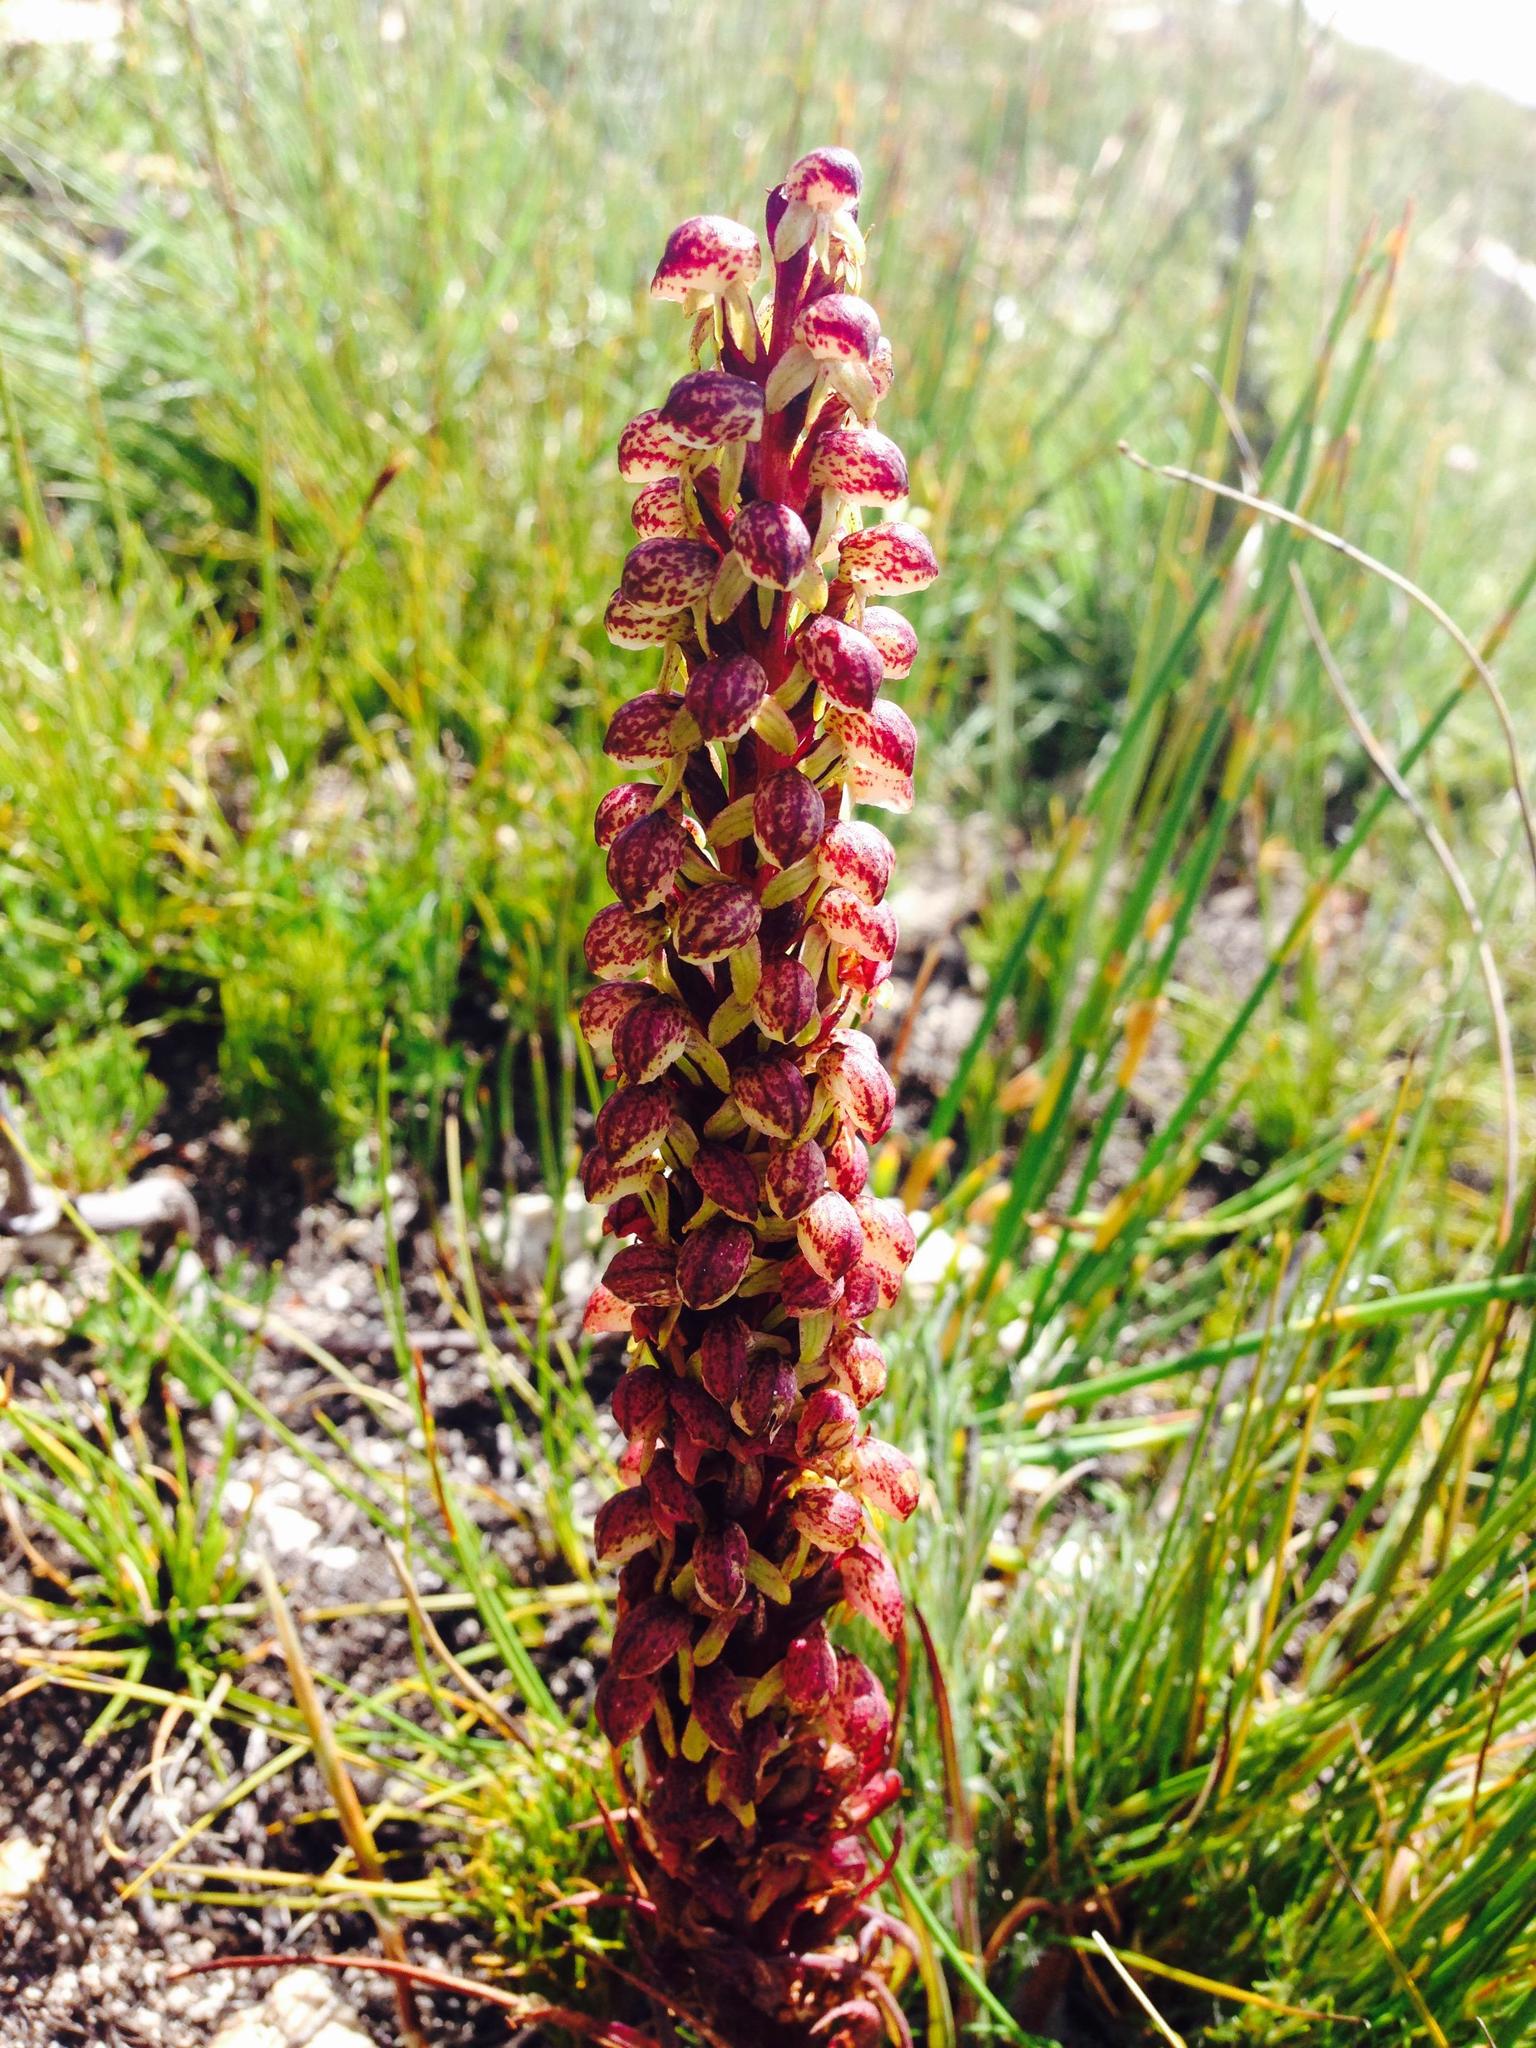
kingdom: Plantae
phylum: Tracheophyta
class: Liliopsida
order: Asparagales
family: Orchidaceae
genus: Disa
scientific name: Disa neglecta
